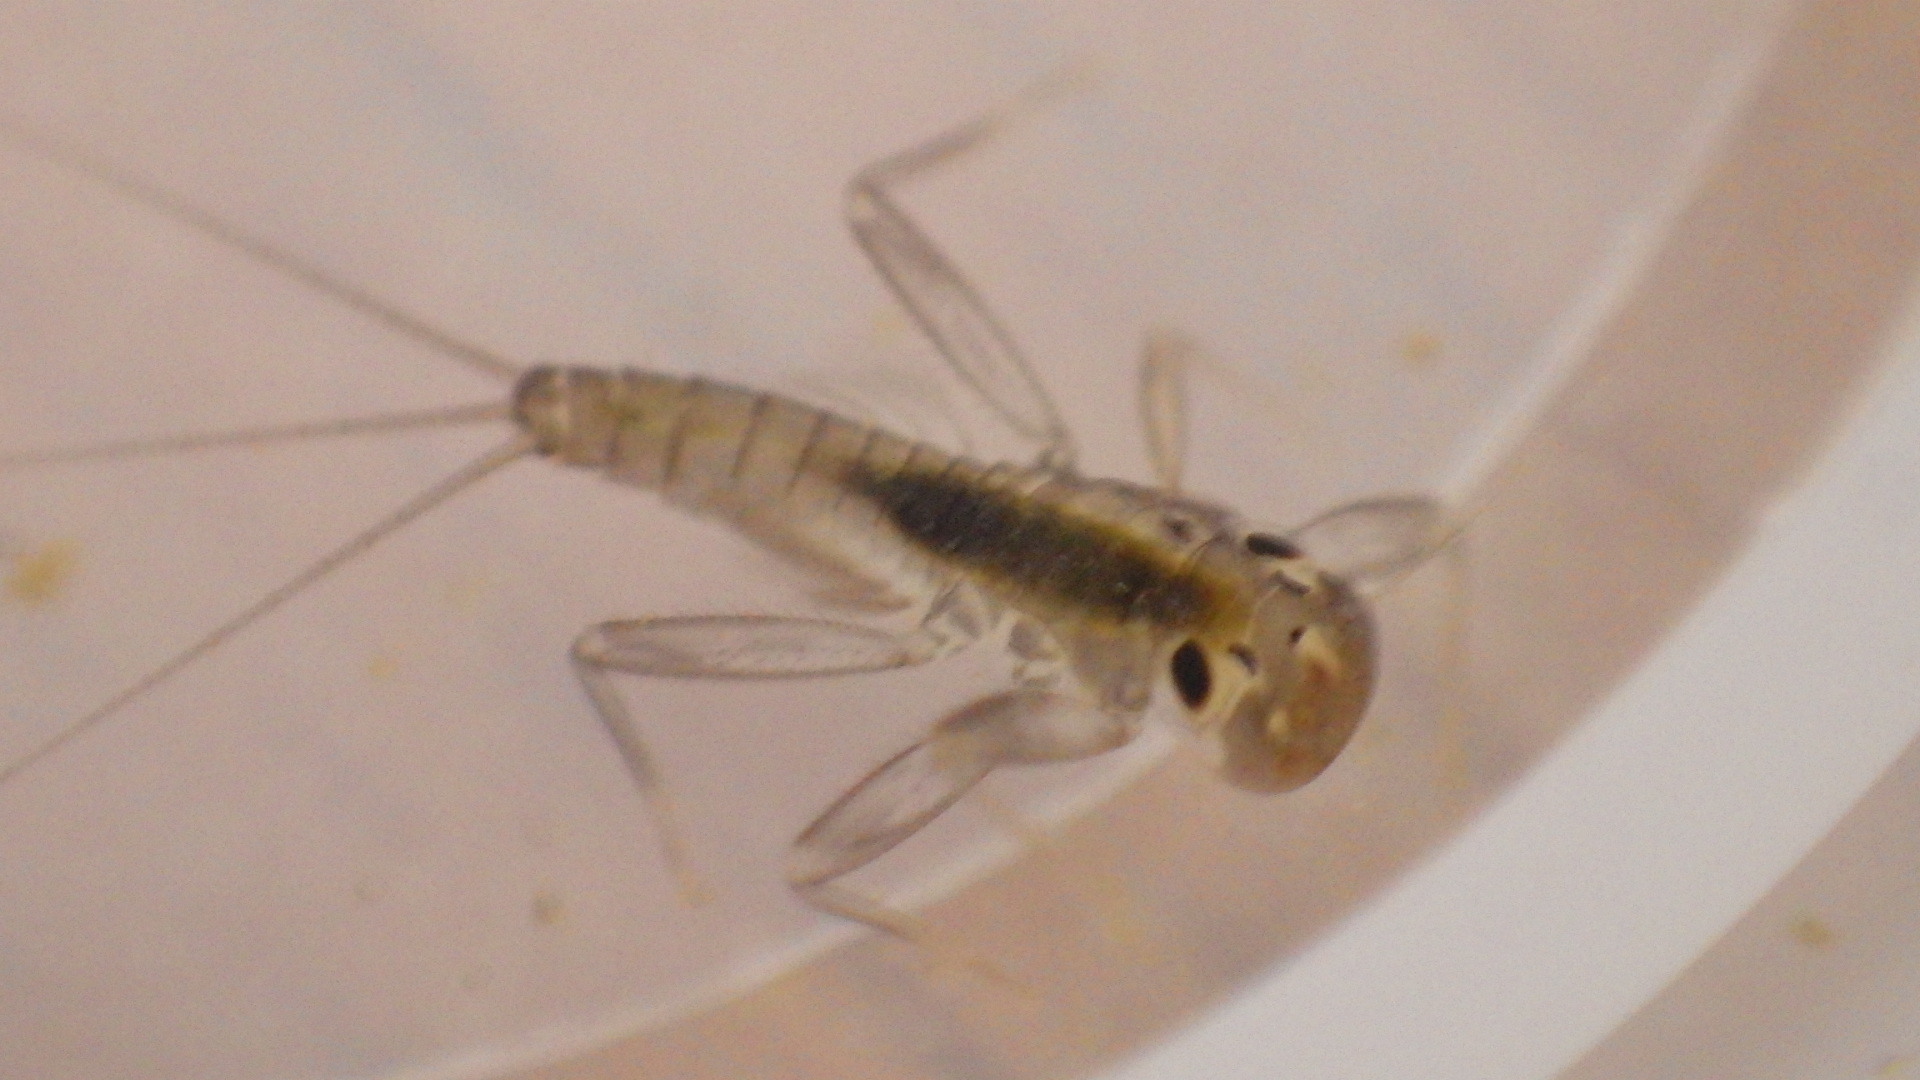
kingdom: Animalia
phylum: Arthropoda
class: Insecta
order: Ephemeroptera
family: Heptageniidae
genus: Stenacron
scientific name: Stenacron carolina
